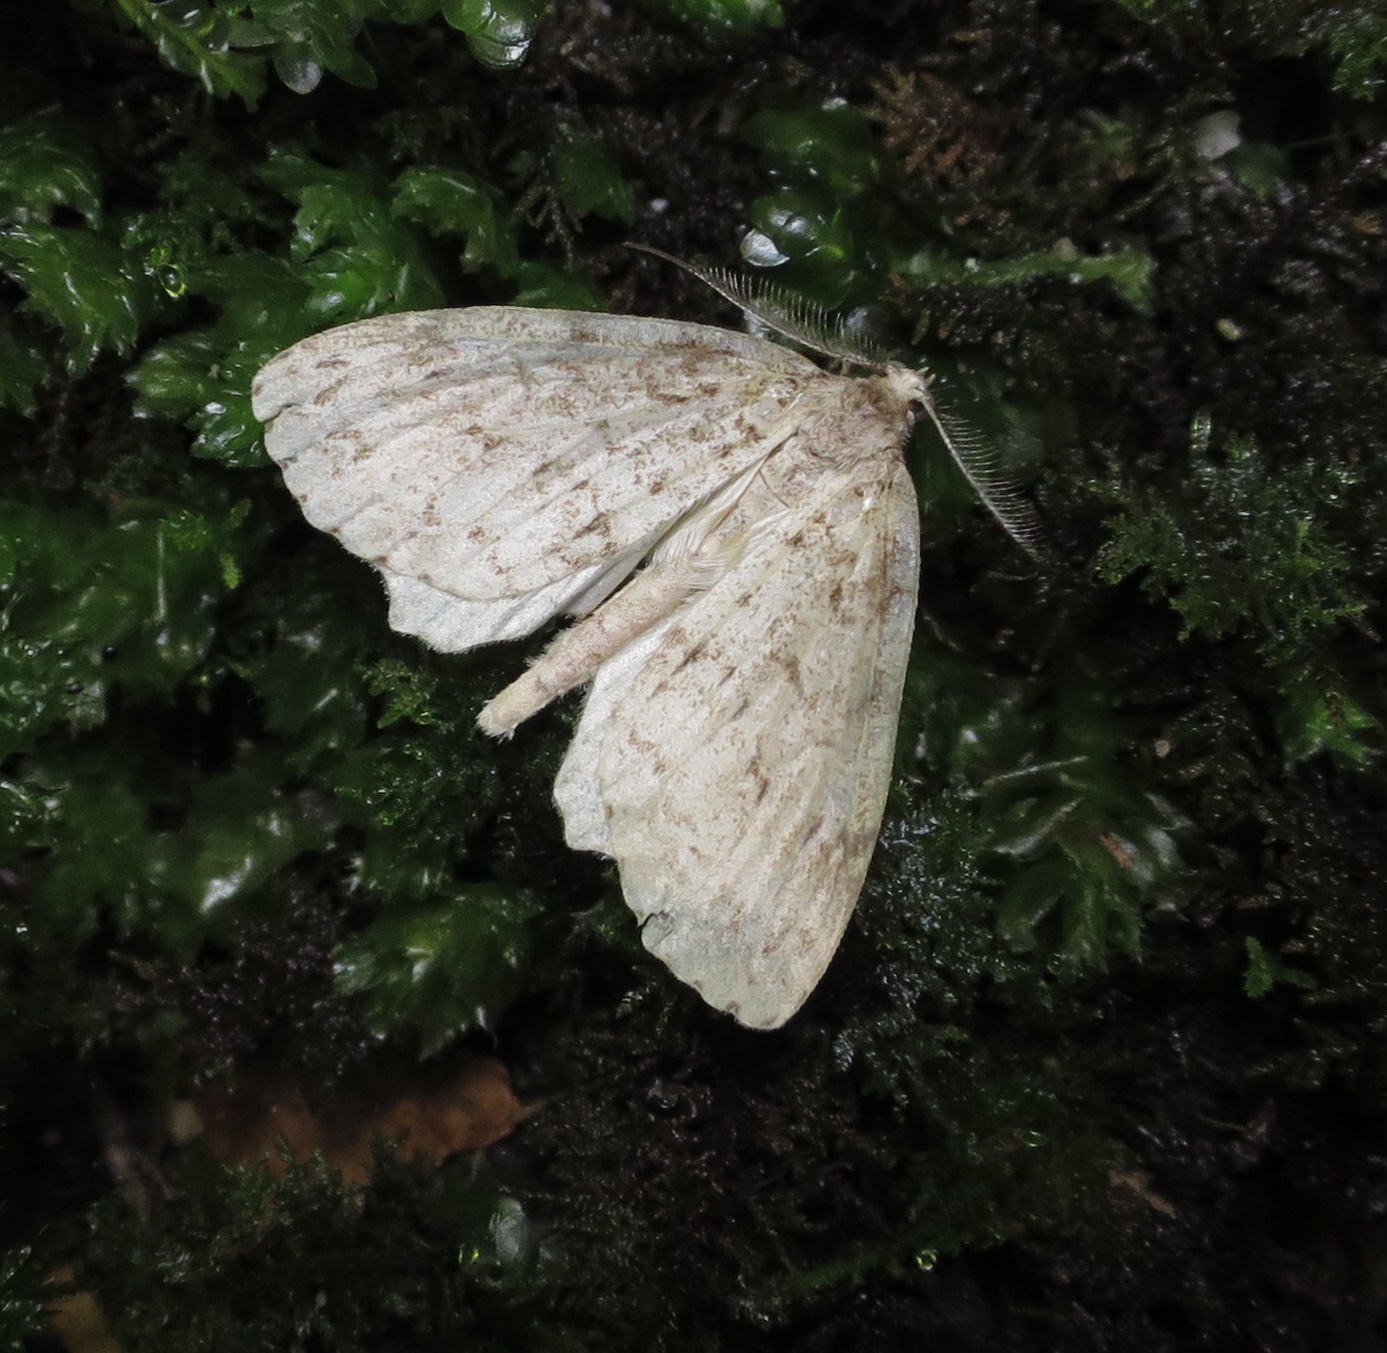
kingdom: Animalia
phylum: Arthropoda
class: Insecta
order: Lepidoptera
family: Geometridae
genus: Pseudocoremia
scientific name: Pseudocoremia fenerata
